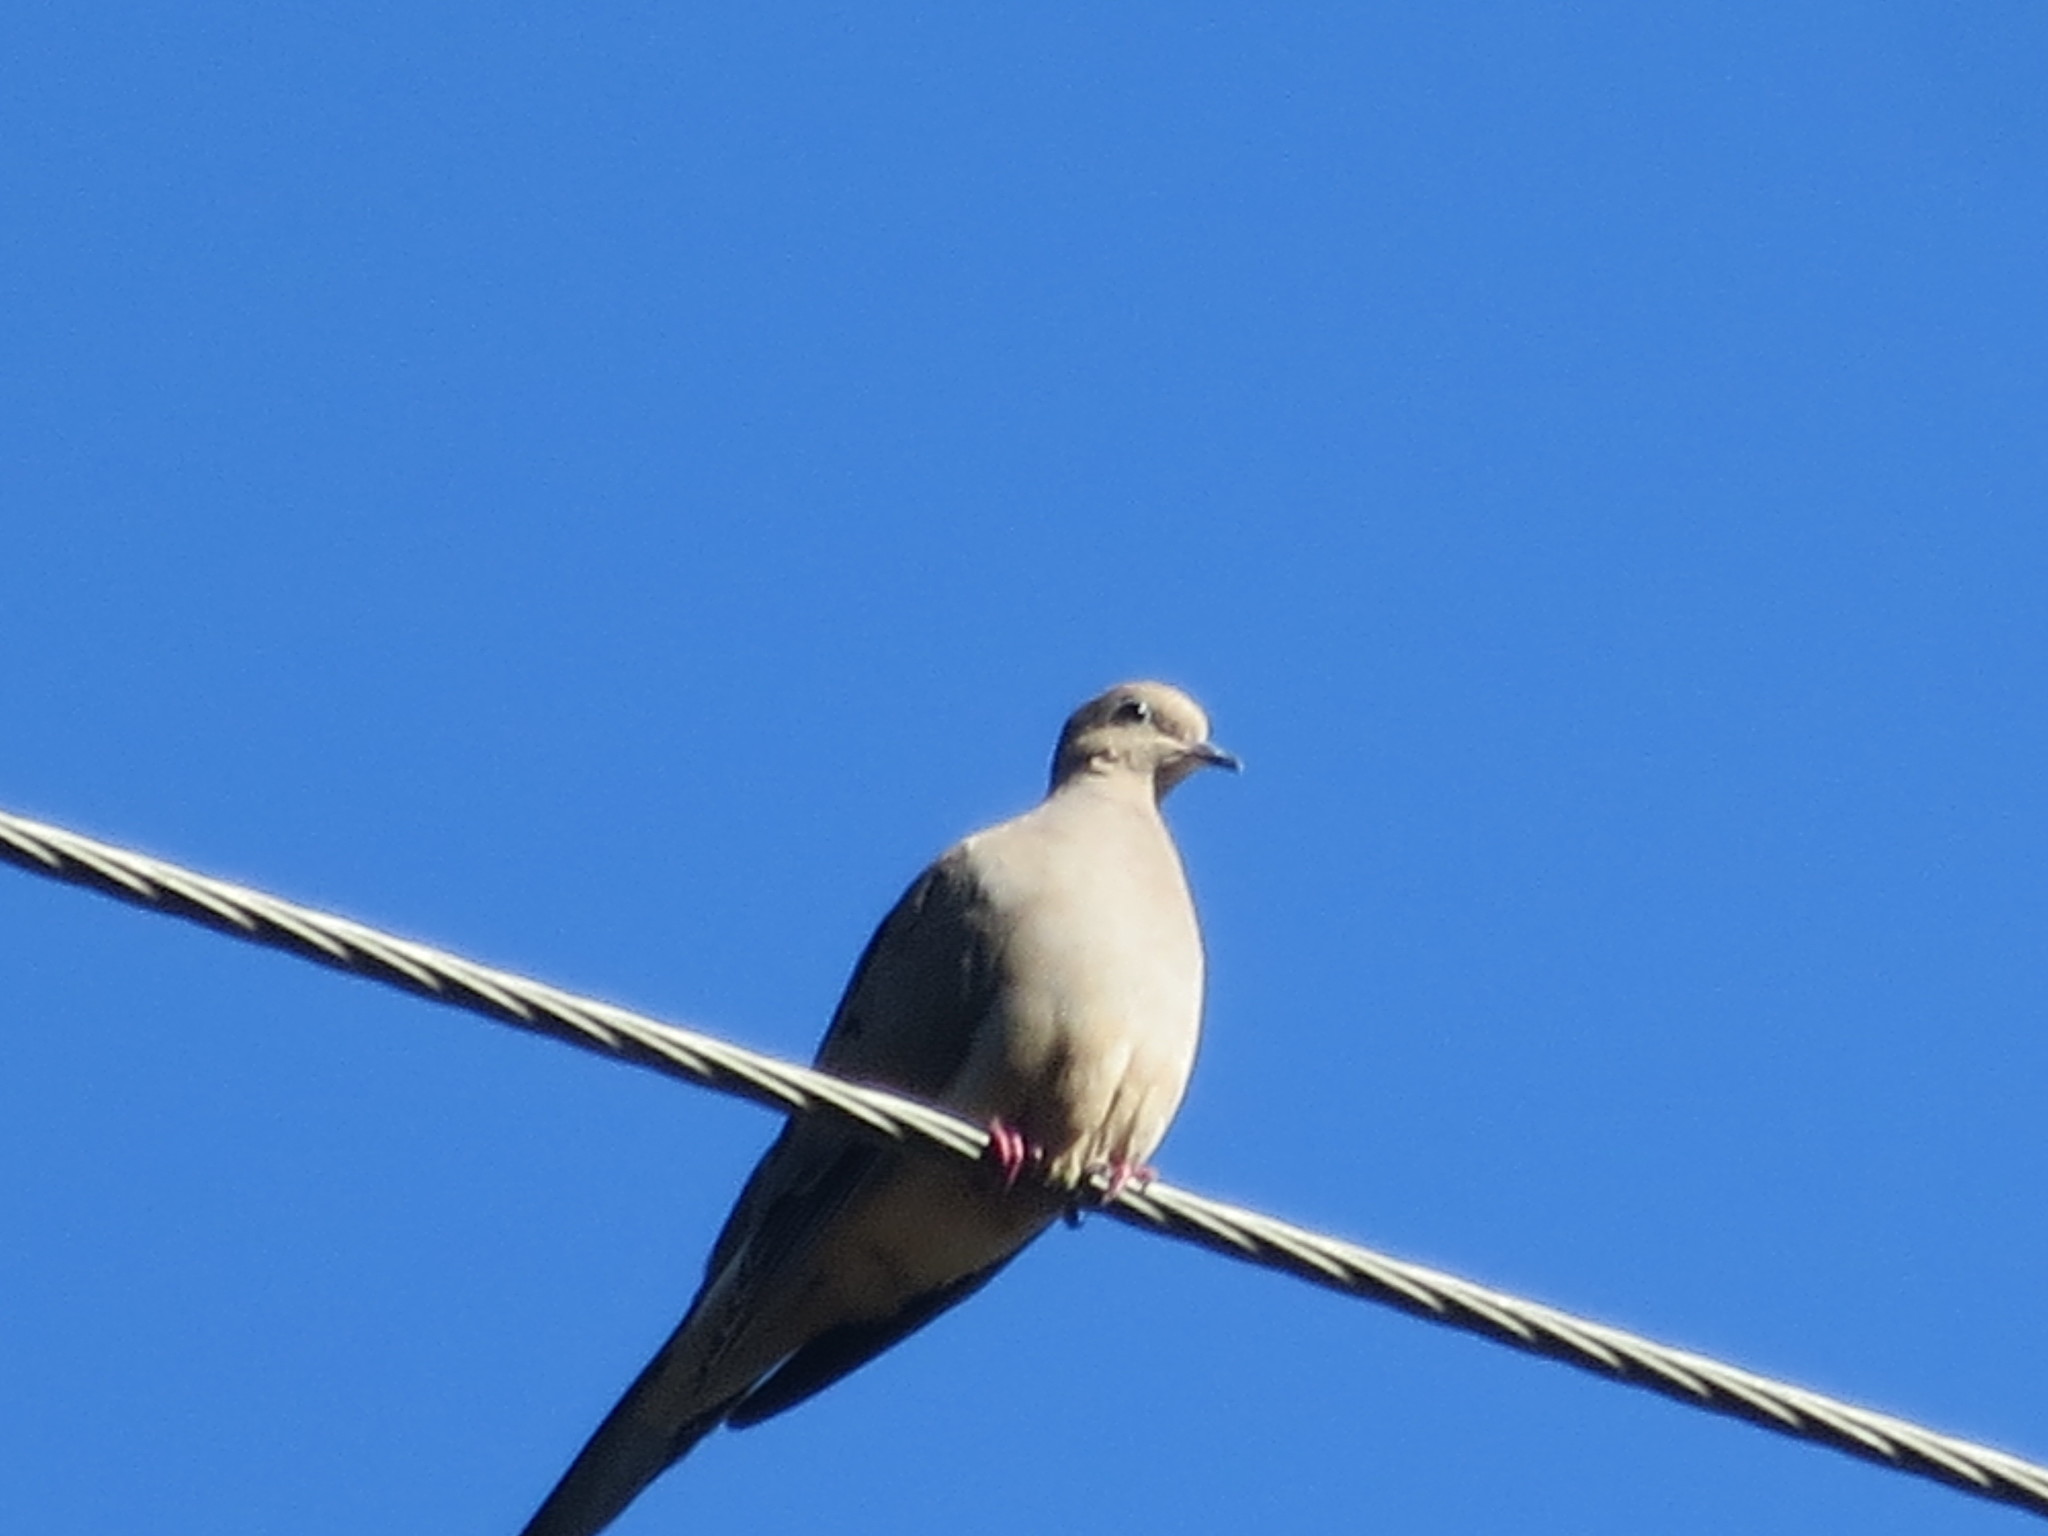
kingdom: Animalia
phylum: Chordata
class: Aves
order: Columbiformes
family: Columbidae
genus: Zenaida
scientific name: Zenaida macroura
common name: Mourning dove
